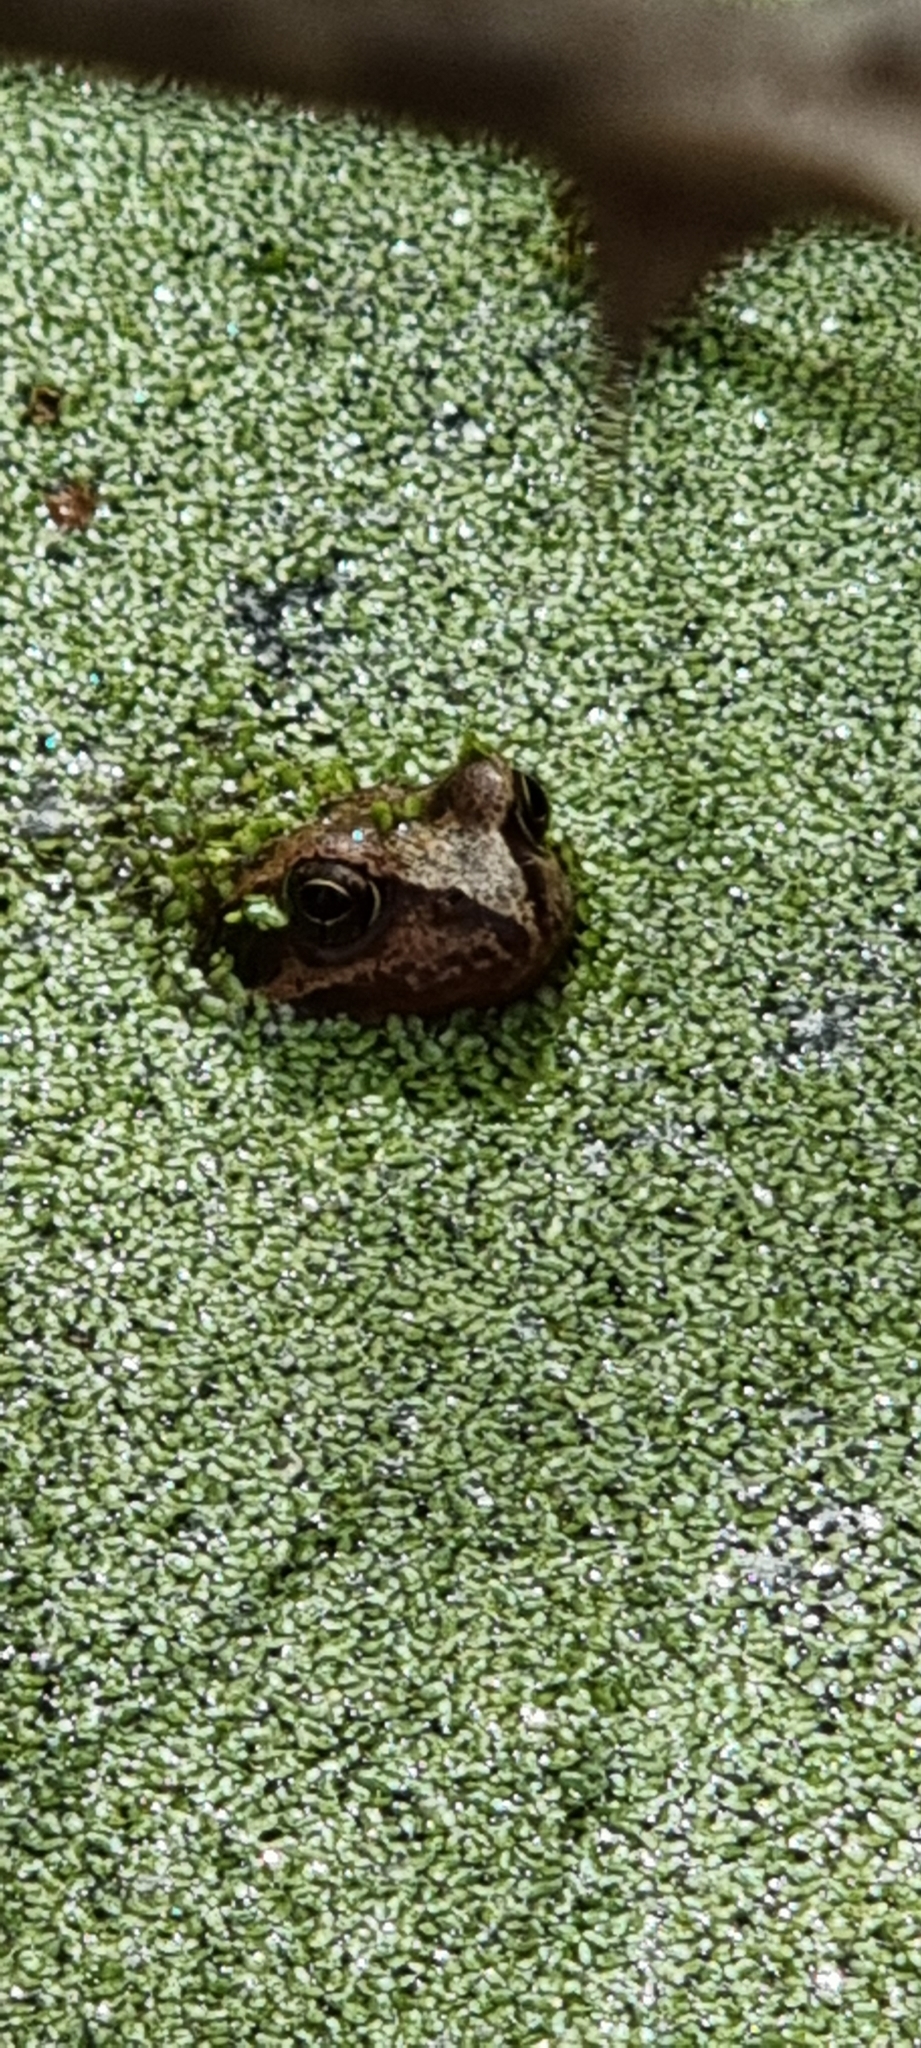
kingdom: Animalia
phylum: Chordata
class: Amphibia
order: Anura
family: Ranidae
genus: Rana
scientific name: Rana temporaria
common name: Common frog
